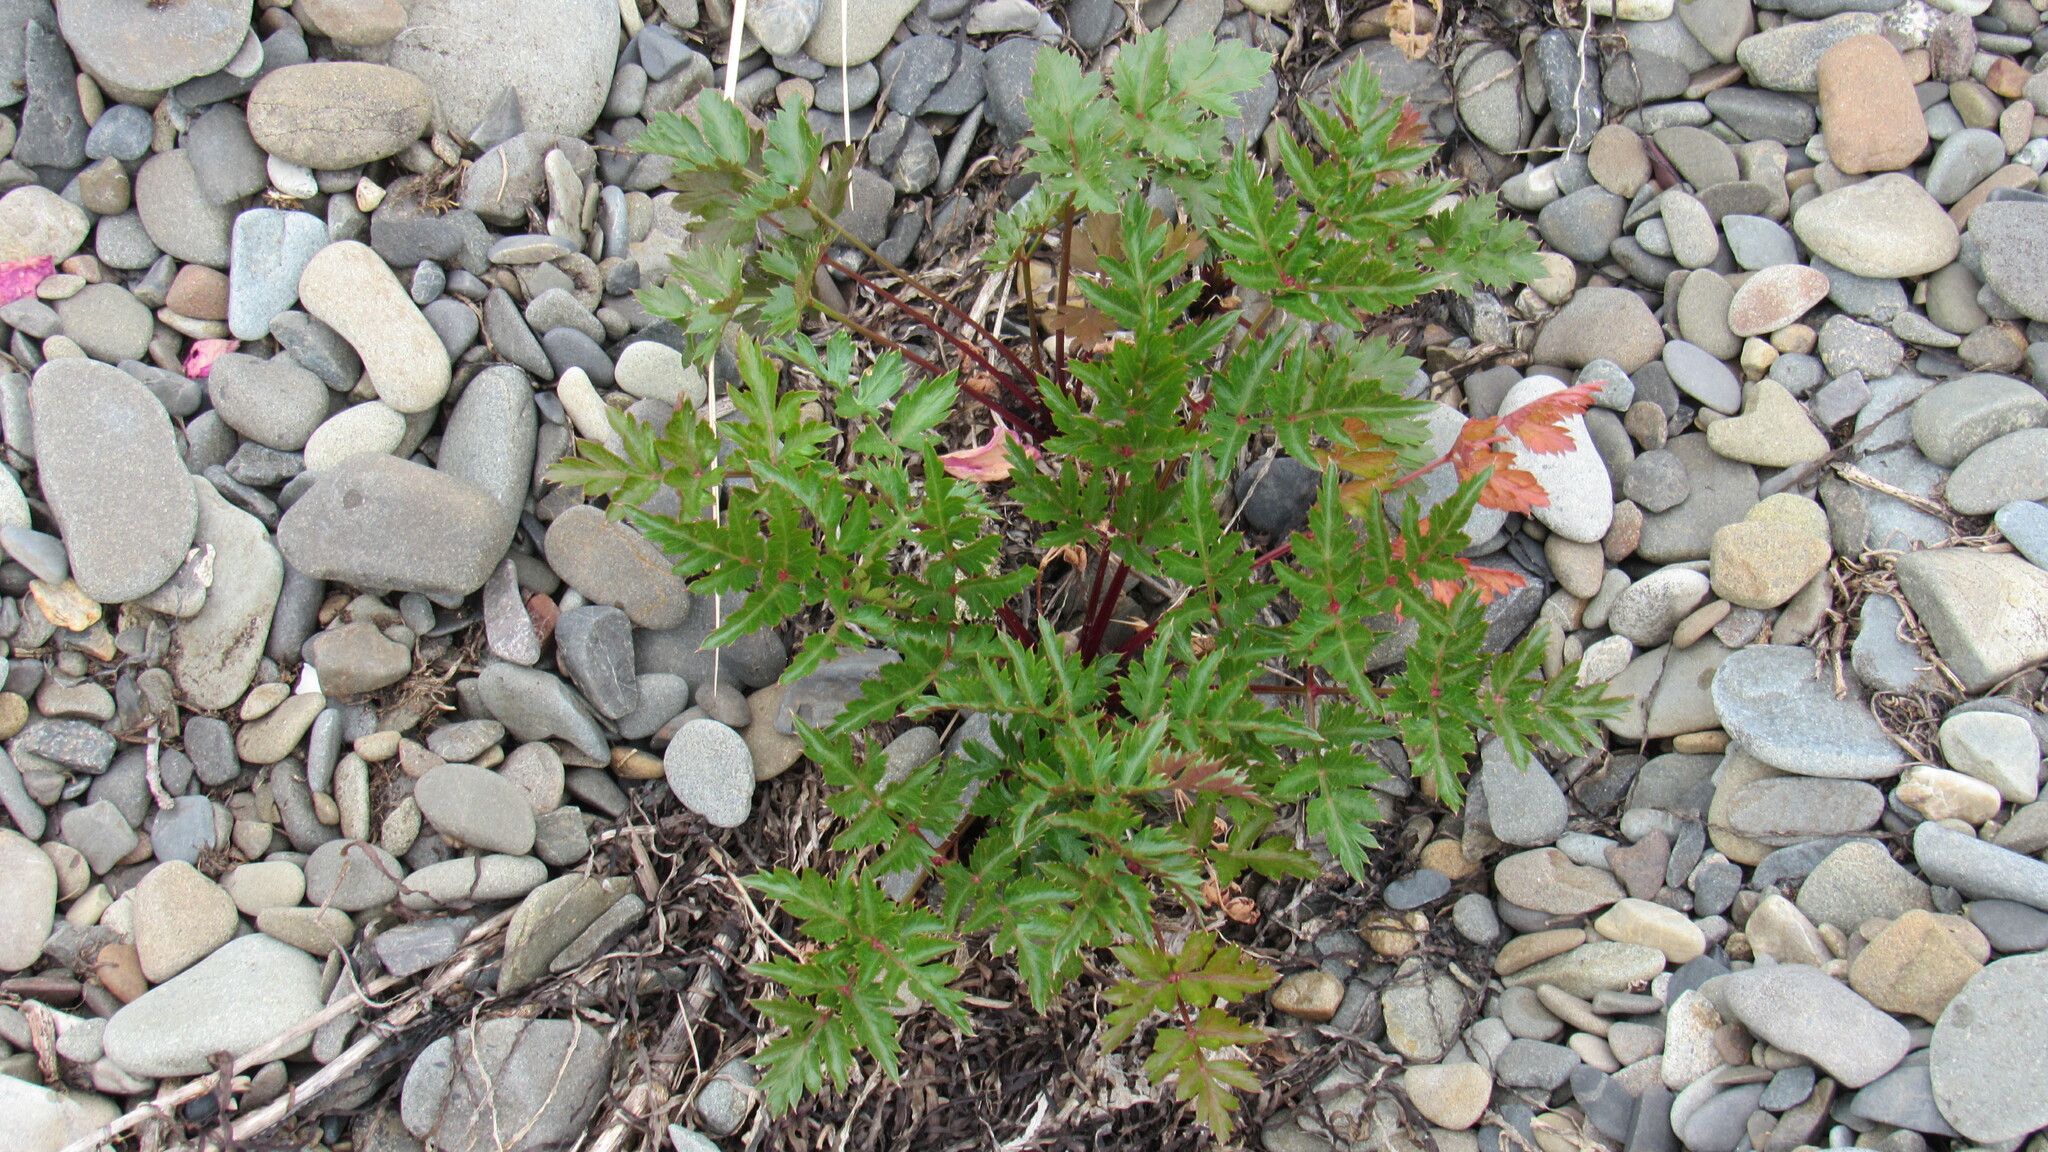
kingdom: Plantae
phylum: Tracheophyta
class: Magnoliopsida
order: Apiales
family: Apiaceae
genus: Kitagawia
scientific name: Kitagawia terebinthacea
